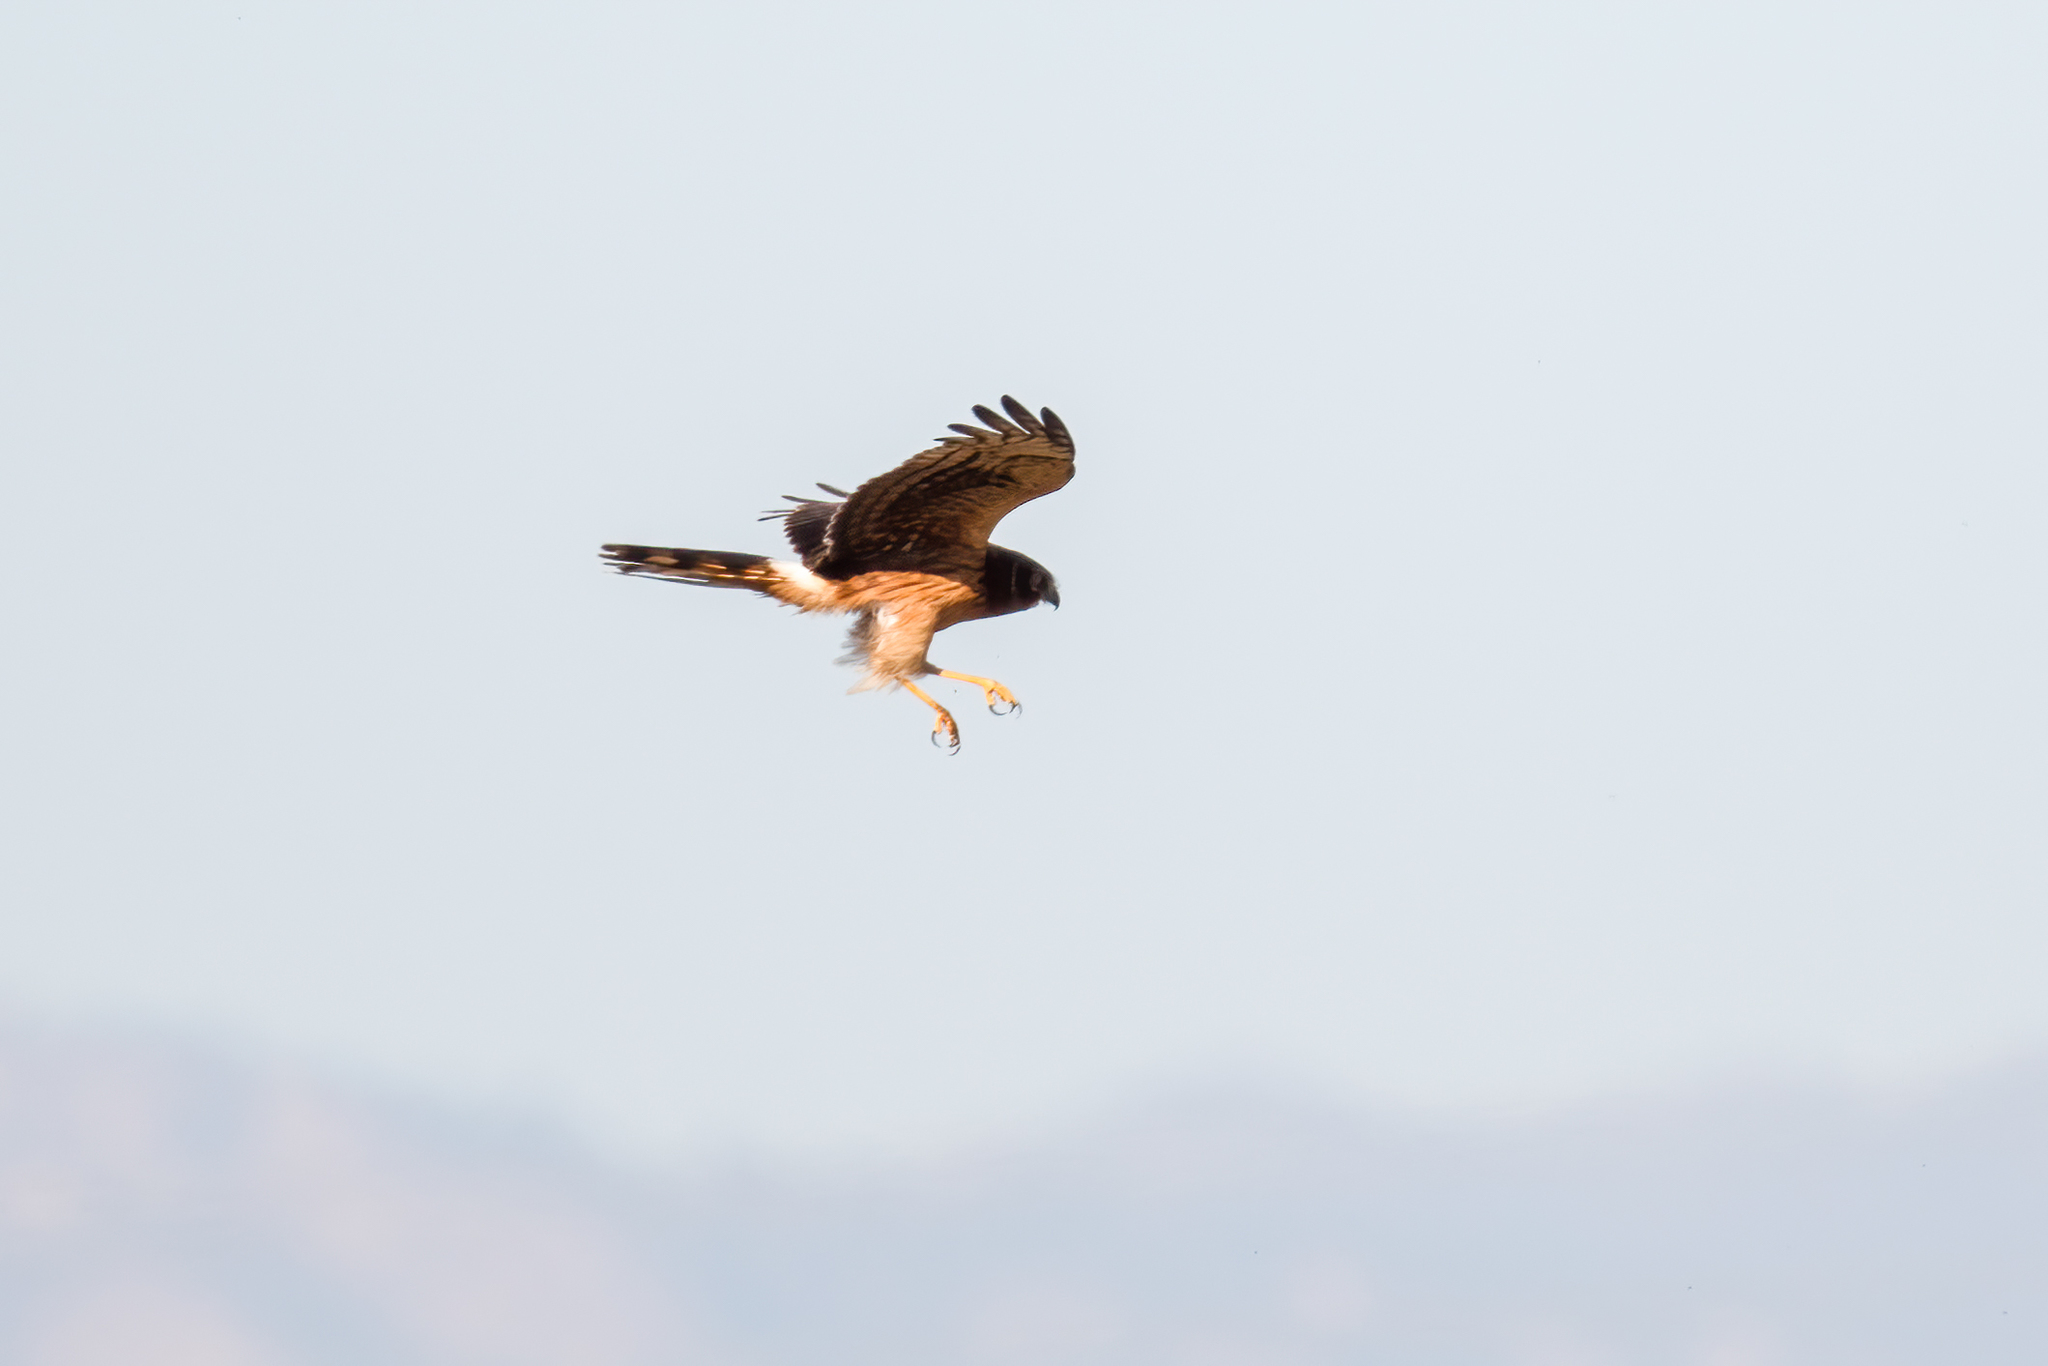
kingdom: Animalia
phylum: Chordata
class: Aves
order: Accipitriformes
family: Accipitridae
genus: Circus
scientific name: Circus cyaneus
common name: Hen harrier
